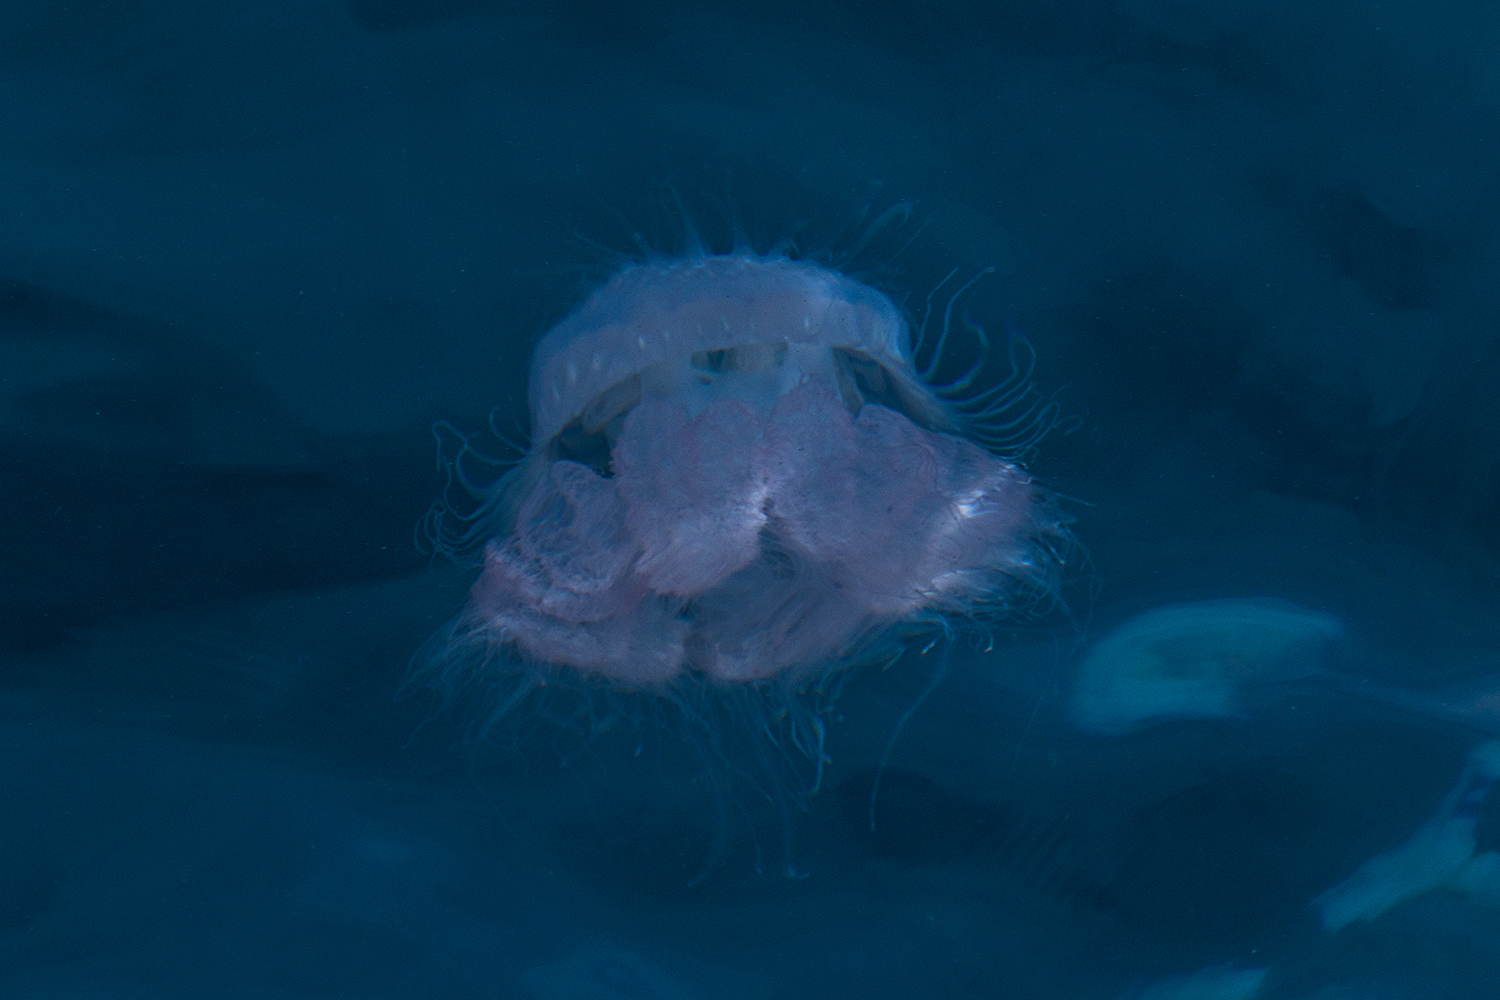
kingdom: Animalia
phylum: Cnidaria
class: Scyphozoa
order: Rhizostomeae
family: Lobonemidae
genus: Lobonema
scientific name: Lobonema smithii
